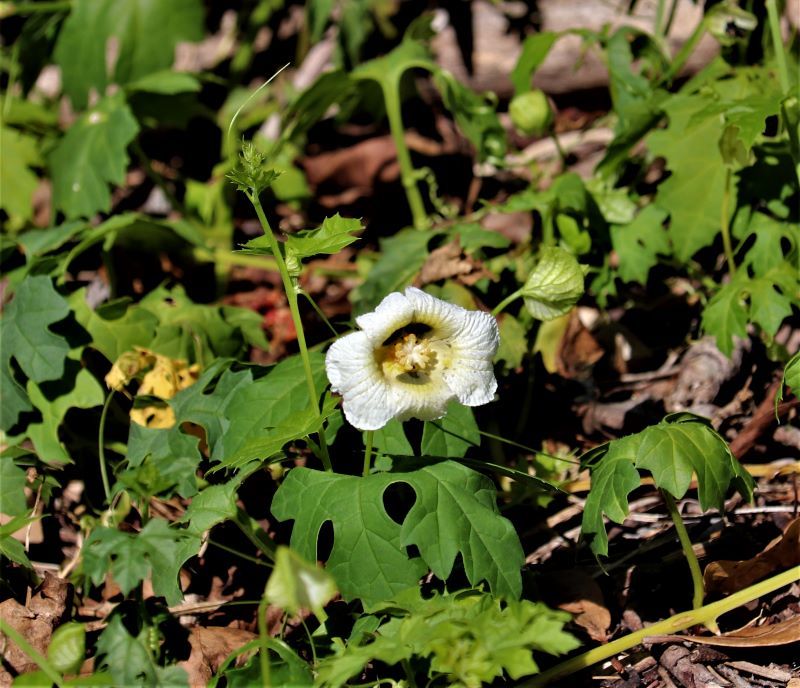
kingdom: Plantae
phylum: Tracheophyta
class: Magnoliopsida
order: Cucurbitales
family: Cucurbitaceae
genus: Momordica
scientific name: Momordica balsamina
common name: Southern balsampear
